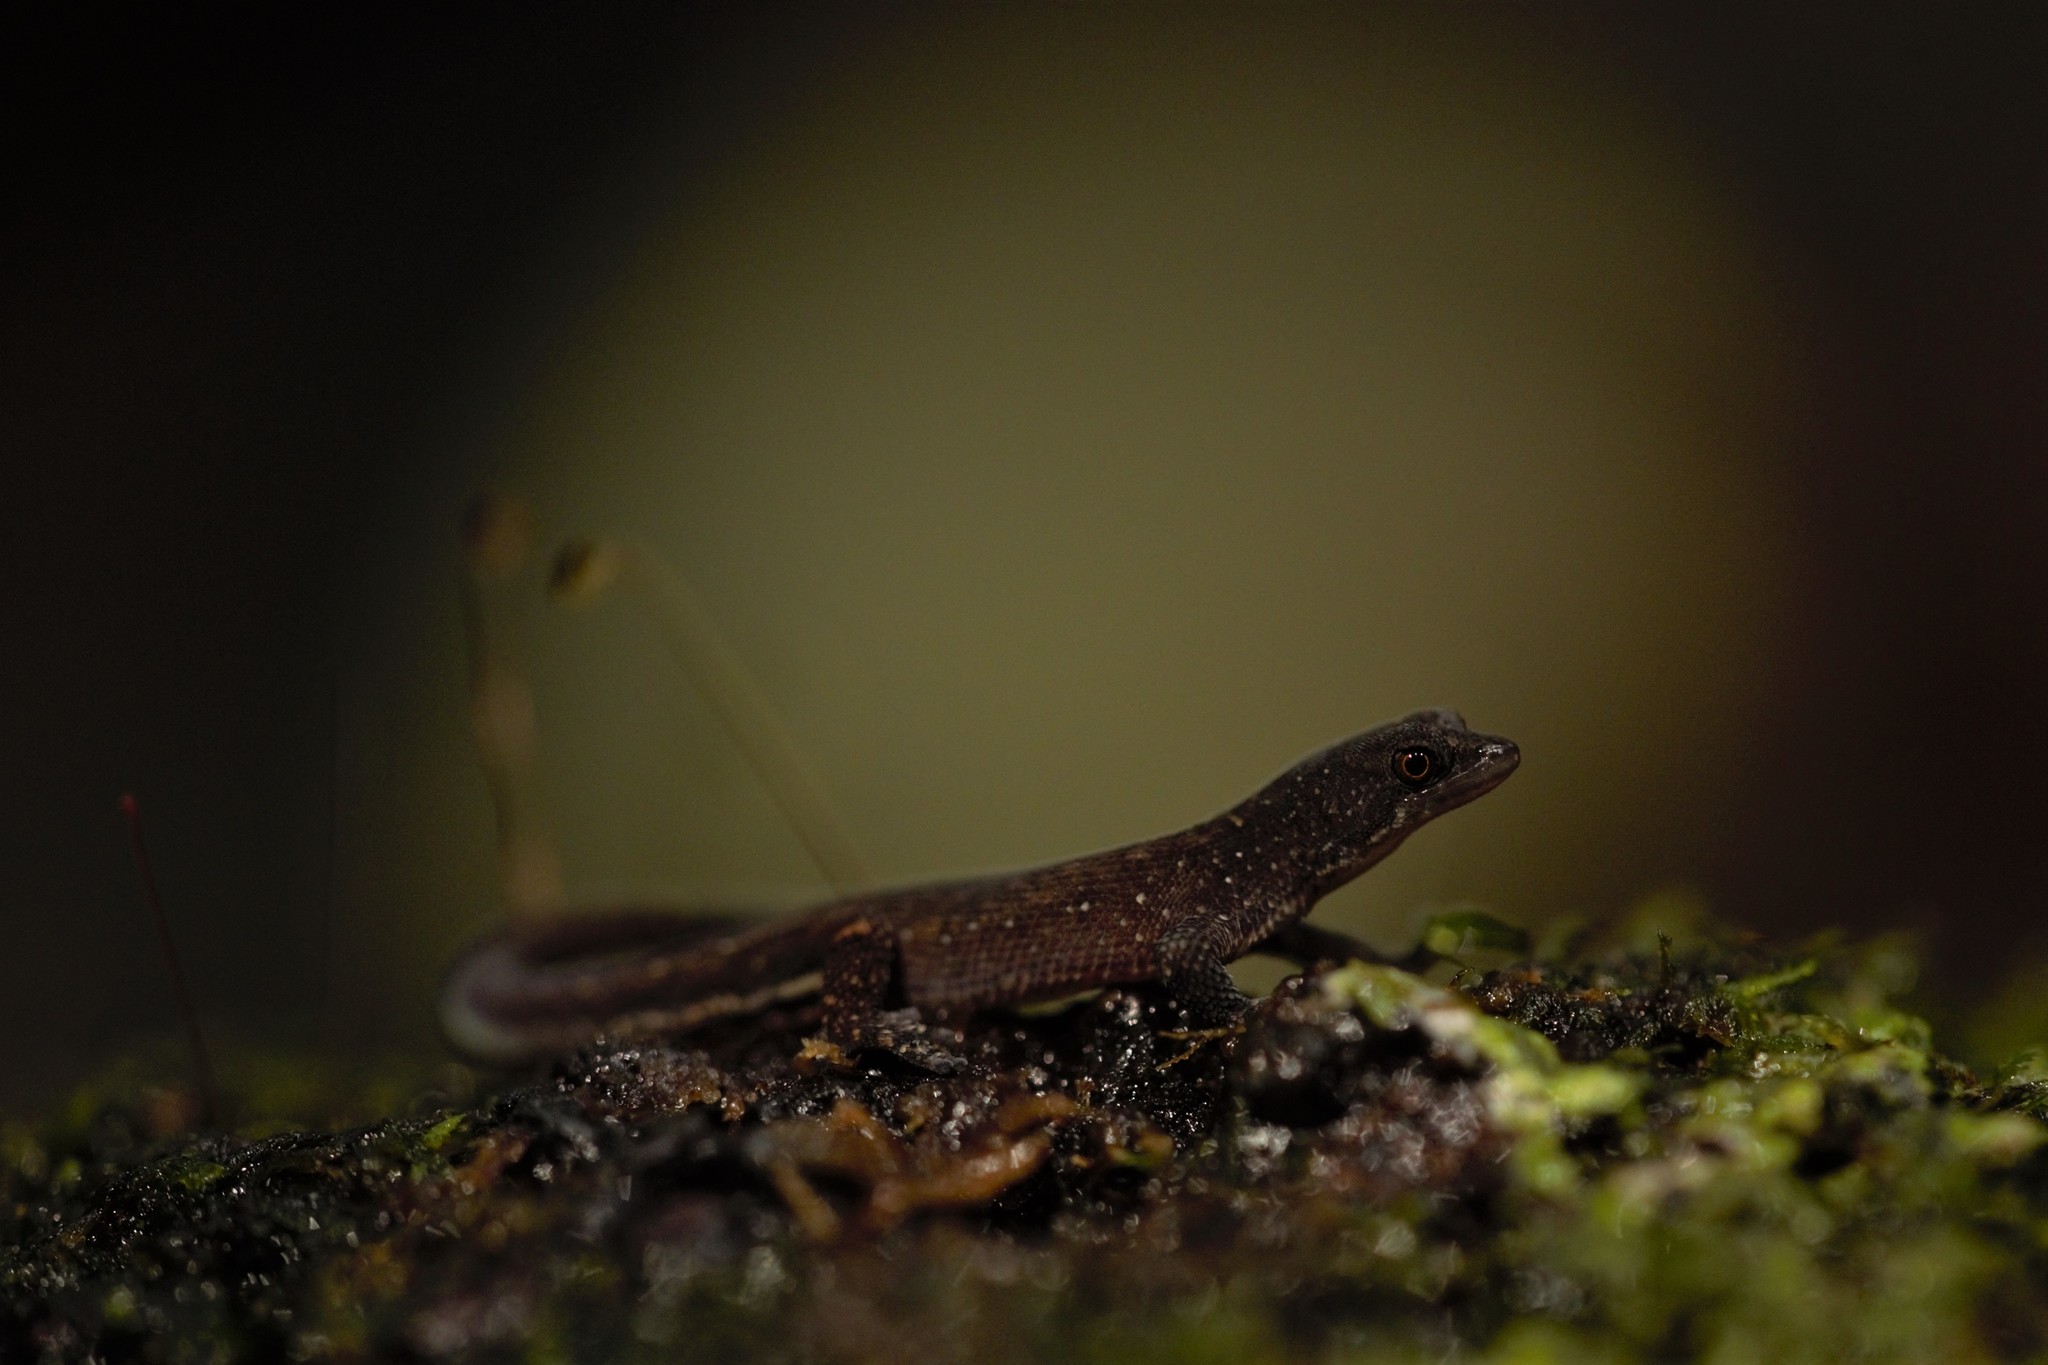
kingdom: Animalia
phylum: Chordata
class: Squamata
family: Sphaerodactylidae
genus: Chatogekko
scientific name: Chatogekko amazonicus
